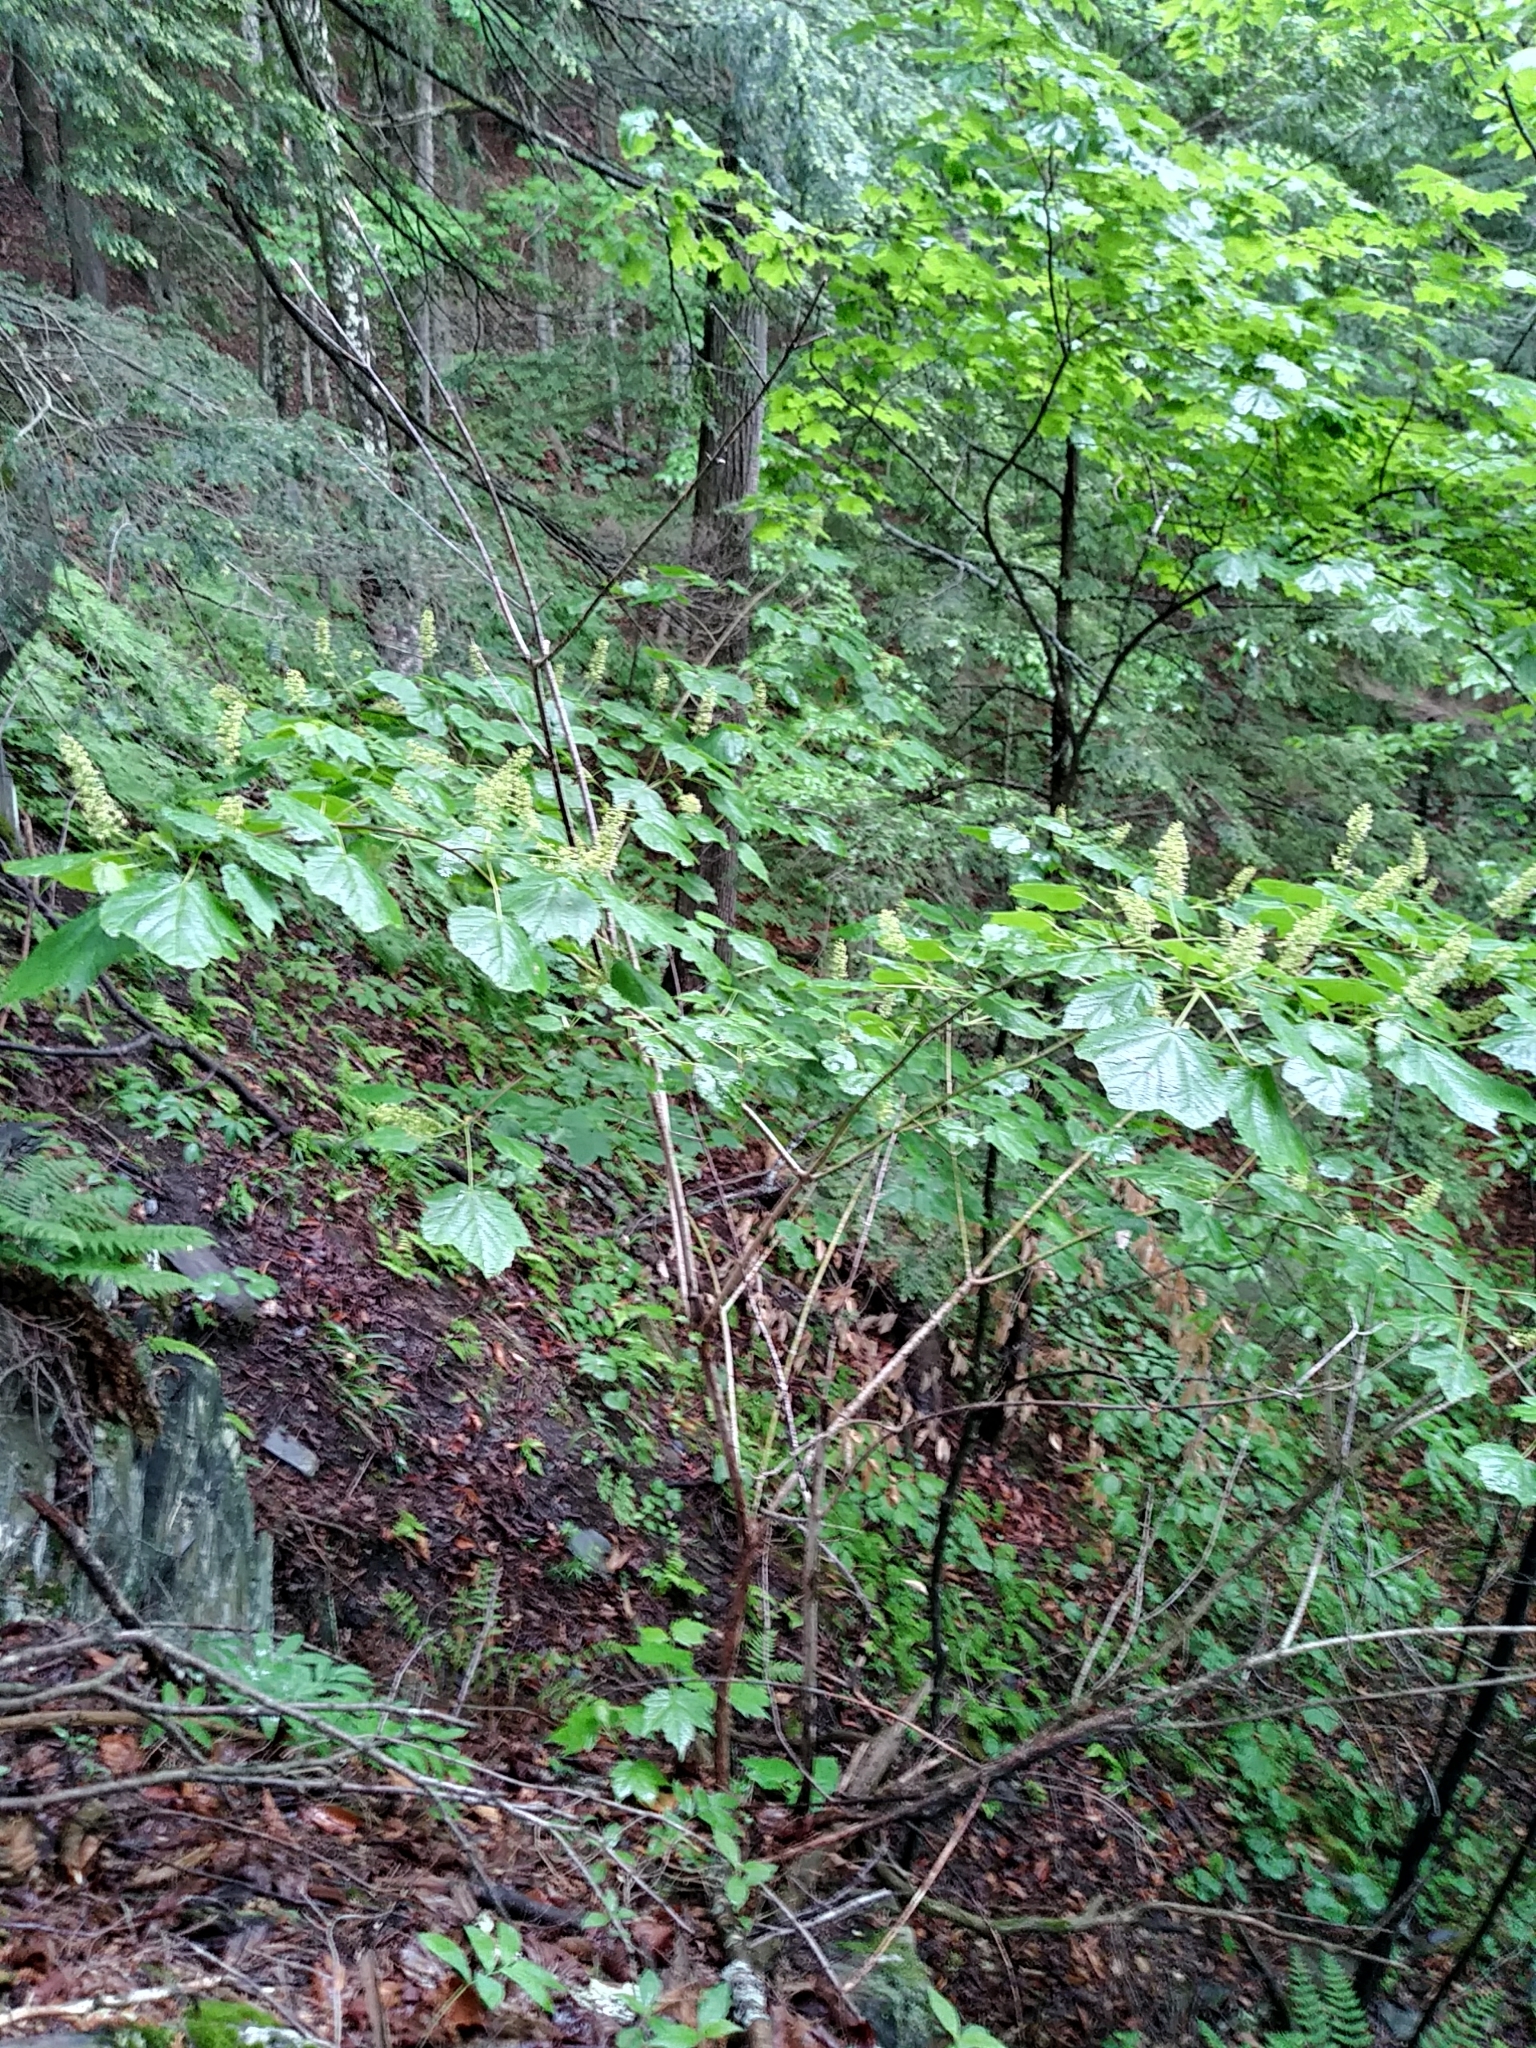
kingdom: Plantae
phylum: Tracheophyta
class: Magnoliopsida
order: Sapindales
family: Sapindaceae
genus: Acer
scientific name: Acer spicatum
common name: Mountain maple
